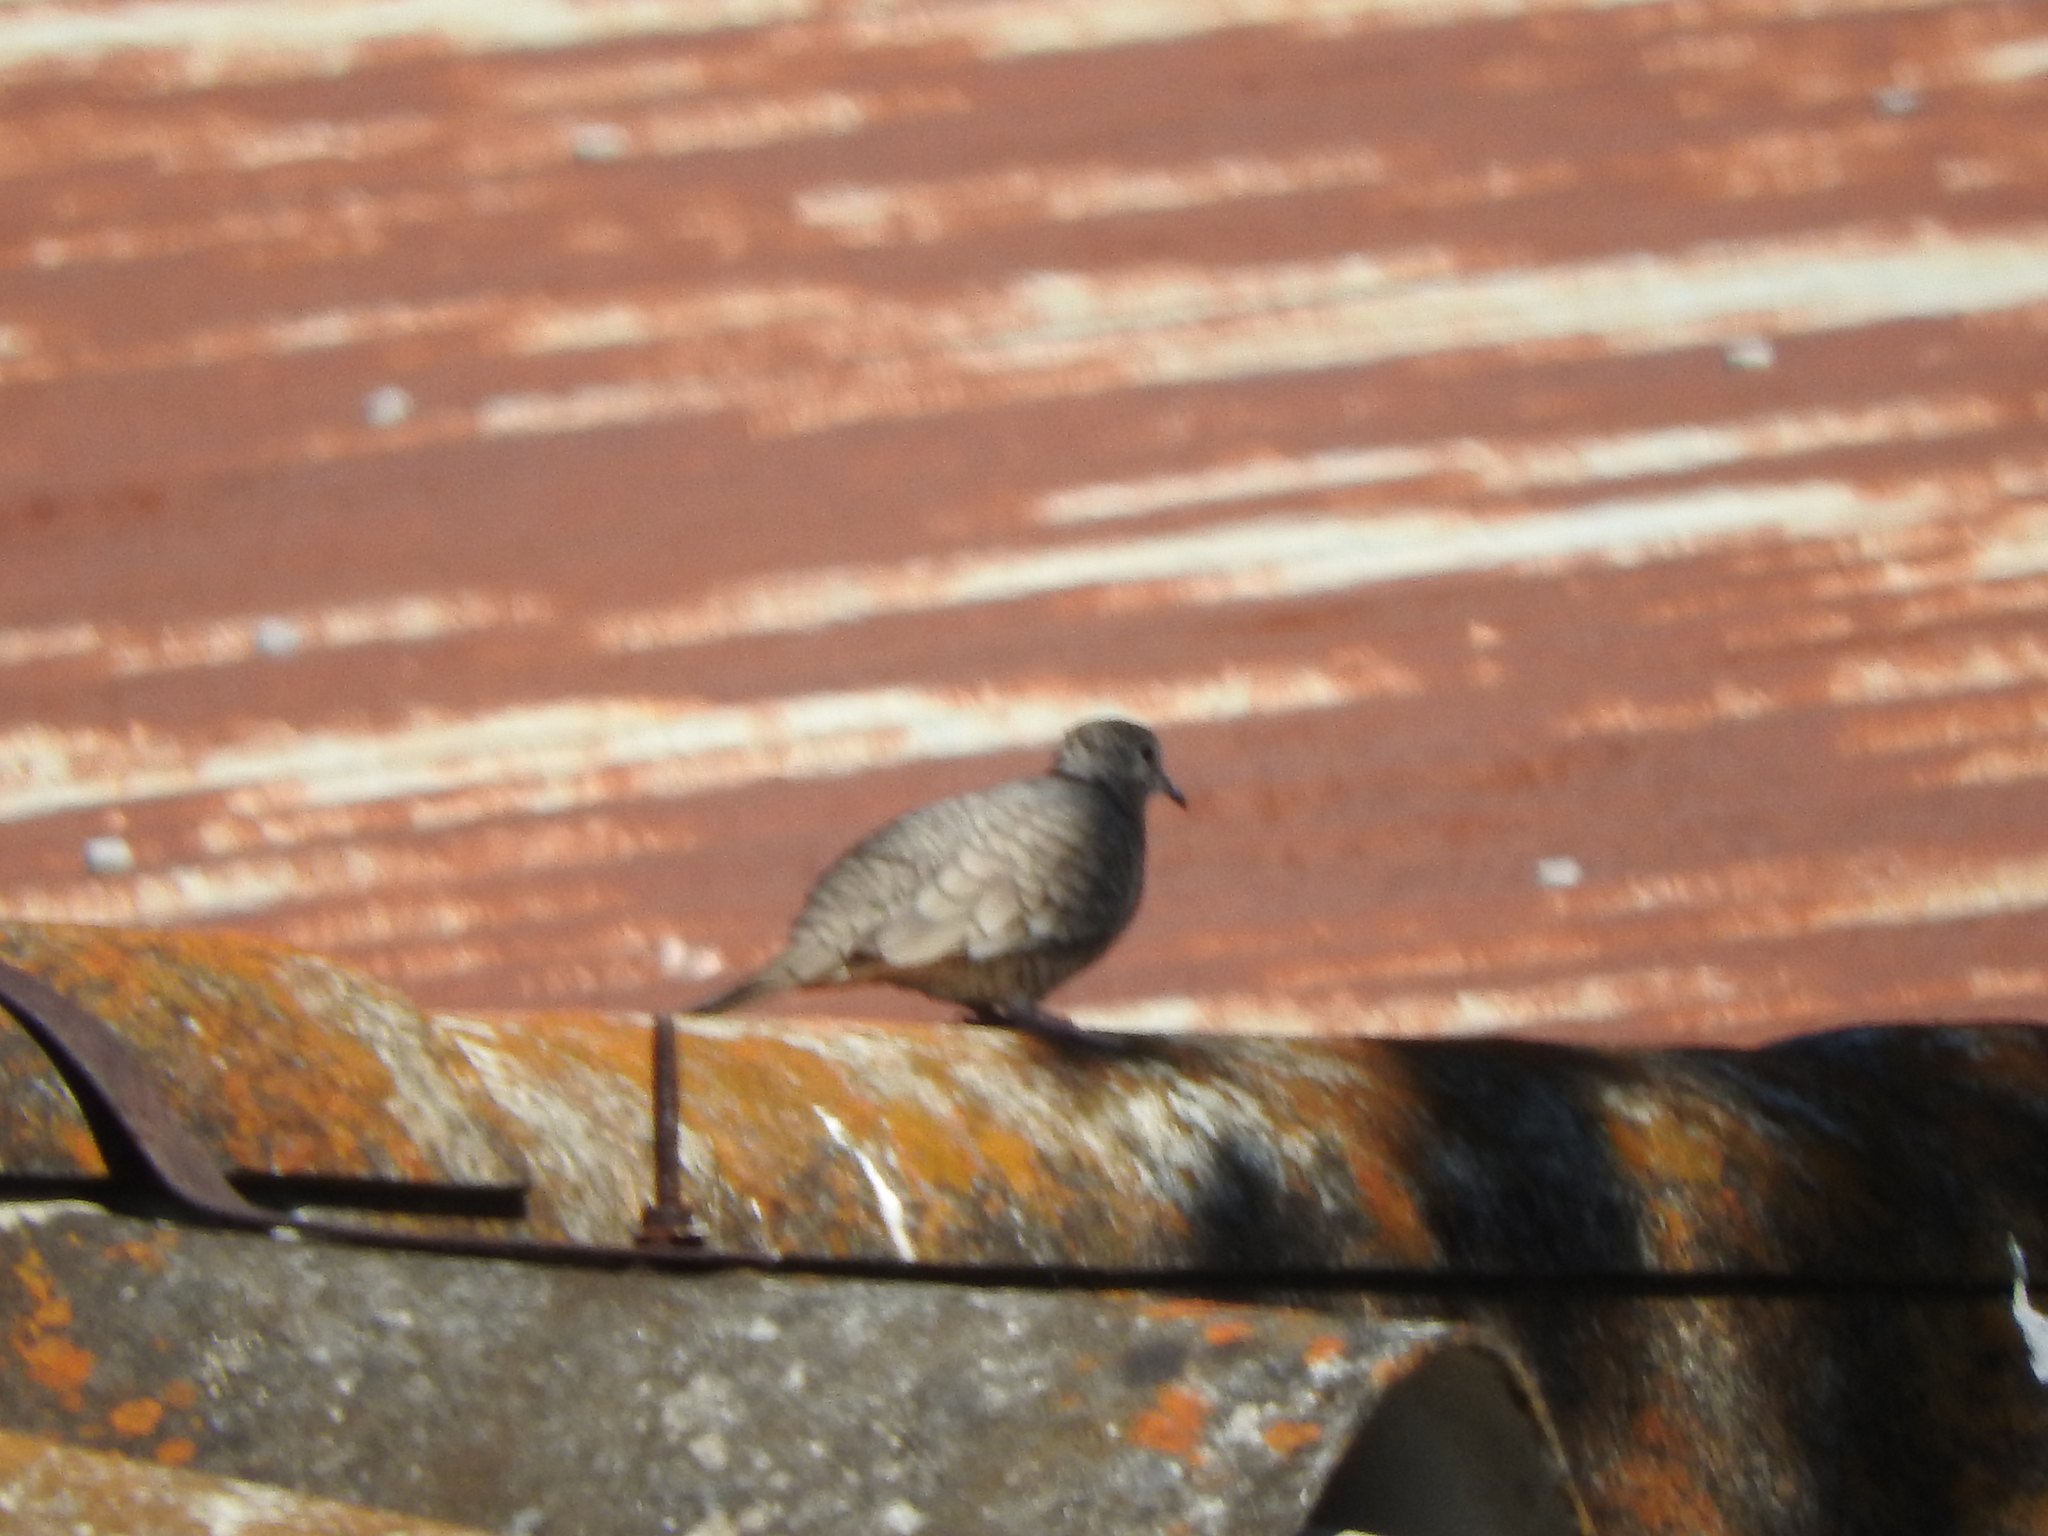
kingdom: Animalia
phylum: Chordata
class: Aves
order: Columbiformes
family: Columbidae
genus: Columbina
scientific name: Columbina inca
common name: Inca dove
